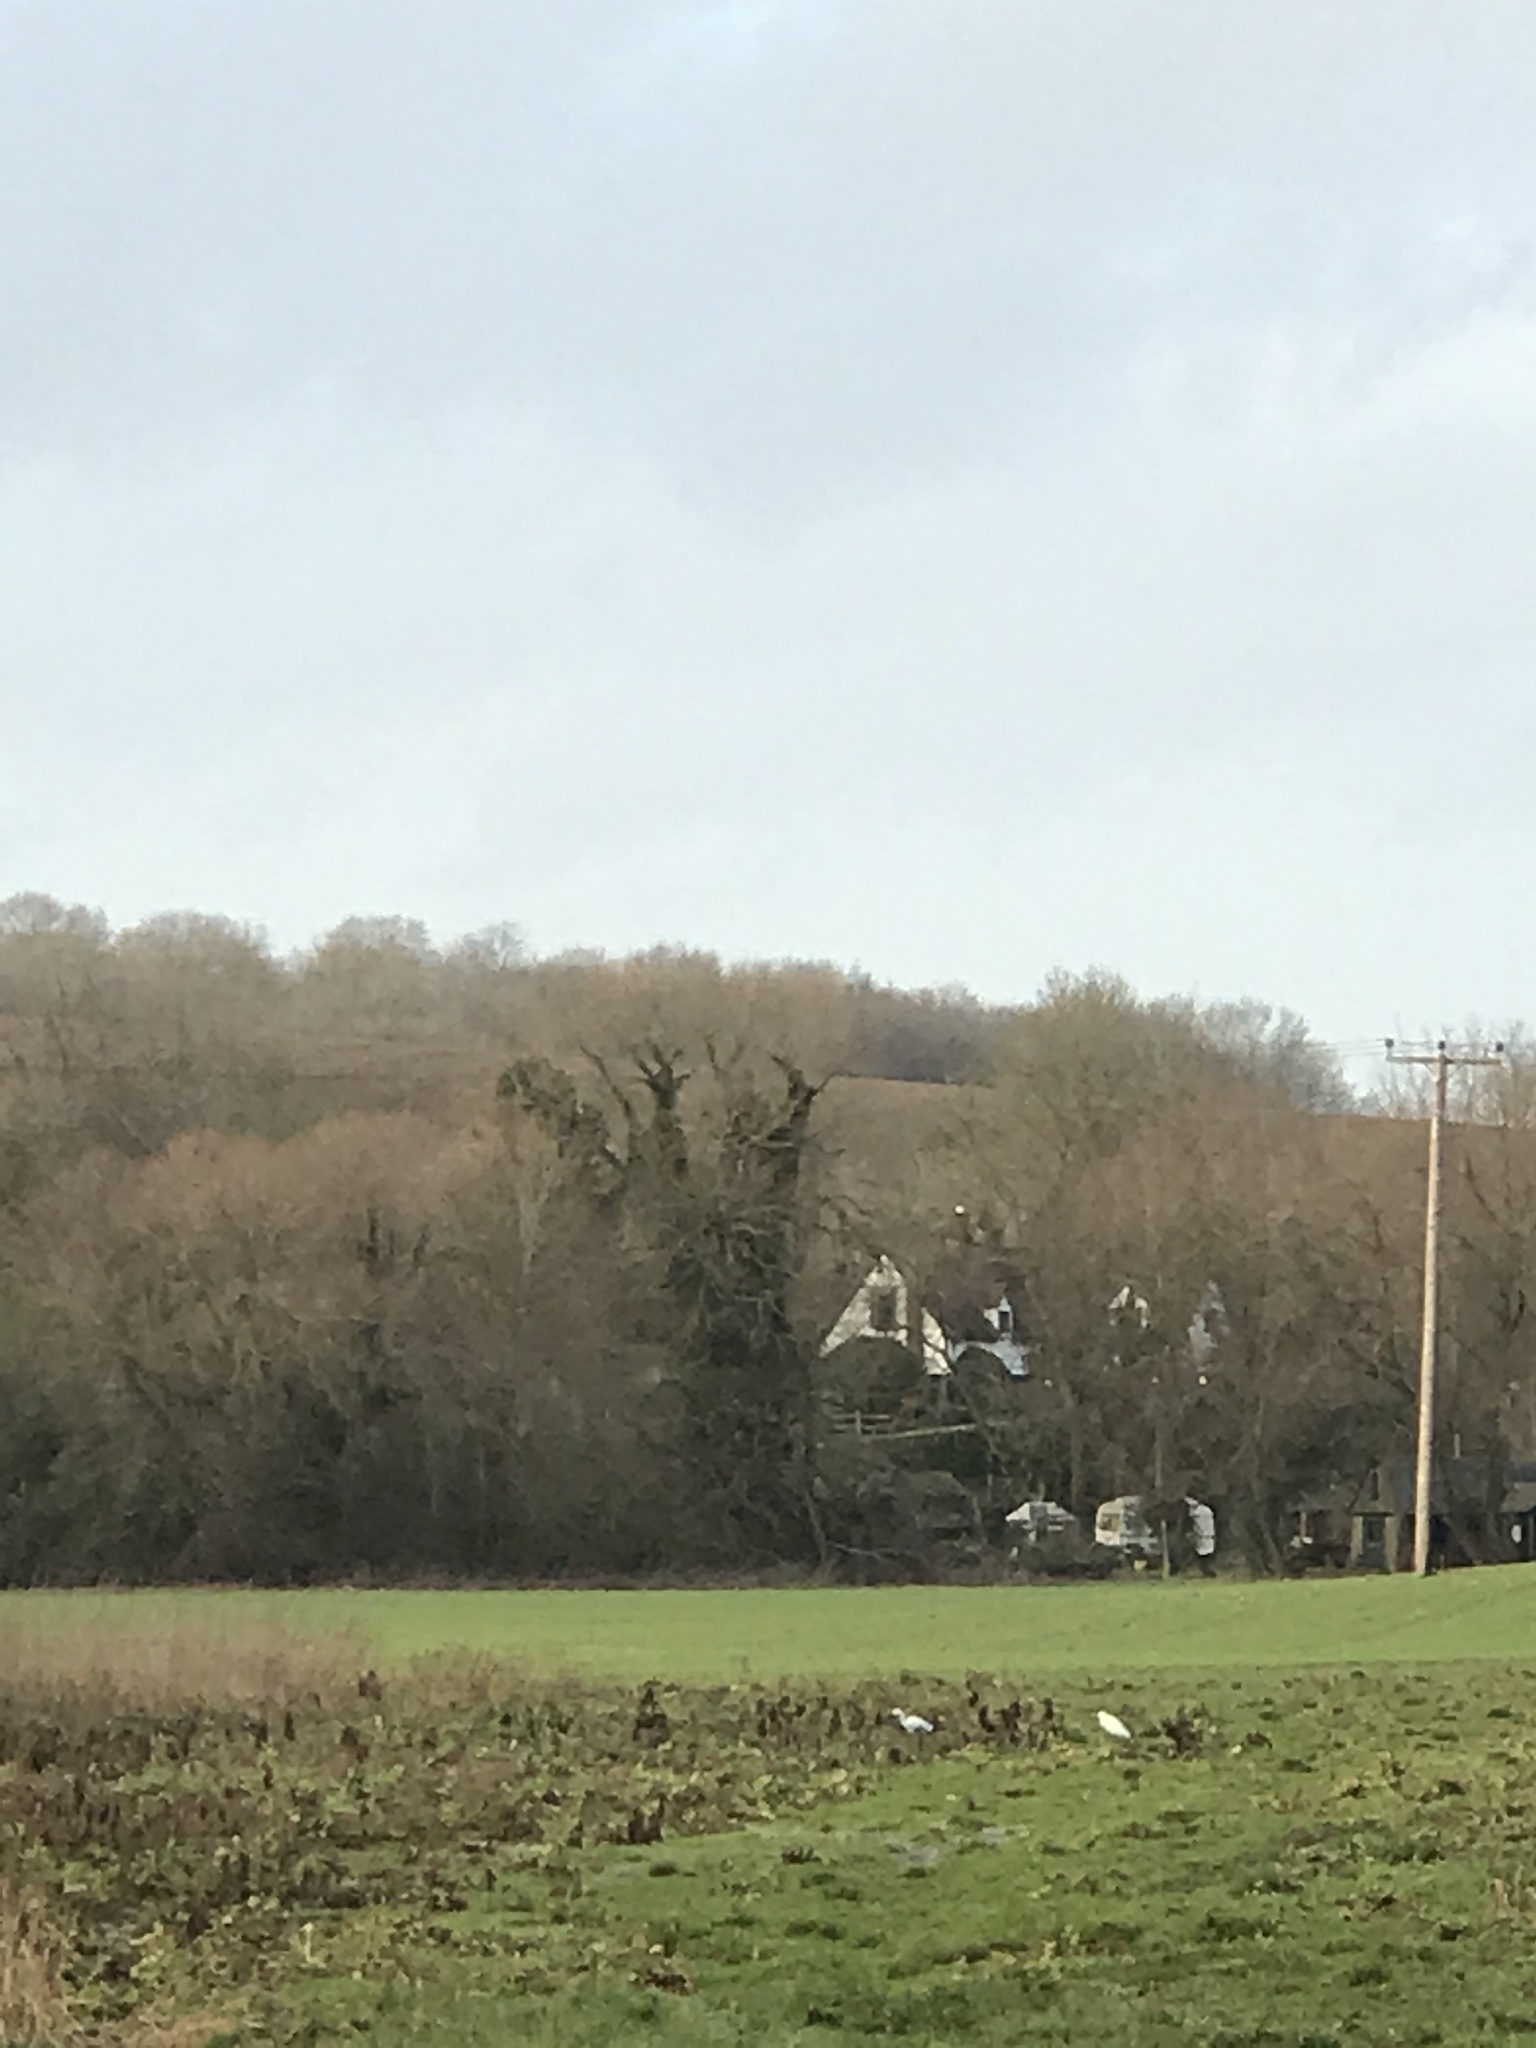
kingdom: Animalia
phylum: Chordata
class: Aves
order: Pelecaniformes
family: Ardeidae
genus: Egretta
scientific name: Egretta garzetta
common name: Little egret
